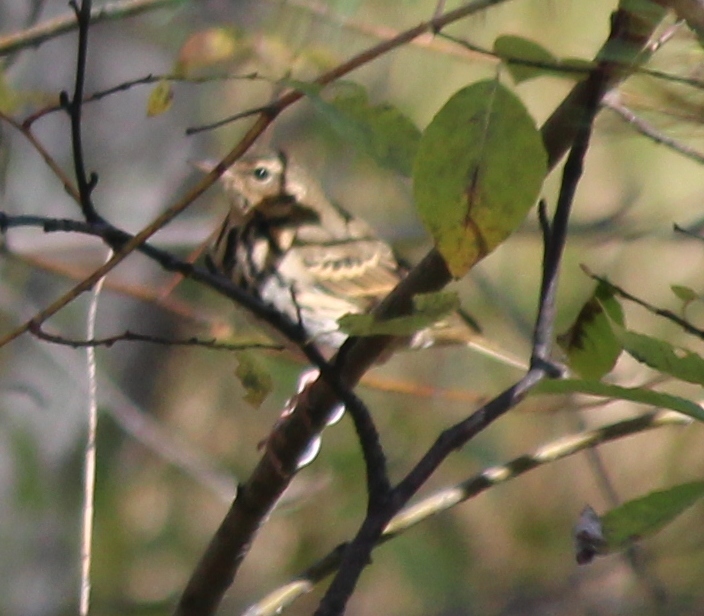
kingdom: Animalia
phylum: Chordata
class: Aves
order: Passeriformes
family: Motacillidae
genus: Anthus
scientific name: Anthus hodgsoni
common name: Olive-backed pipit
